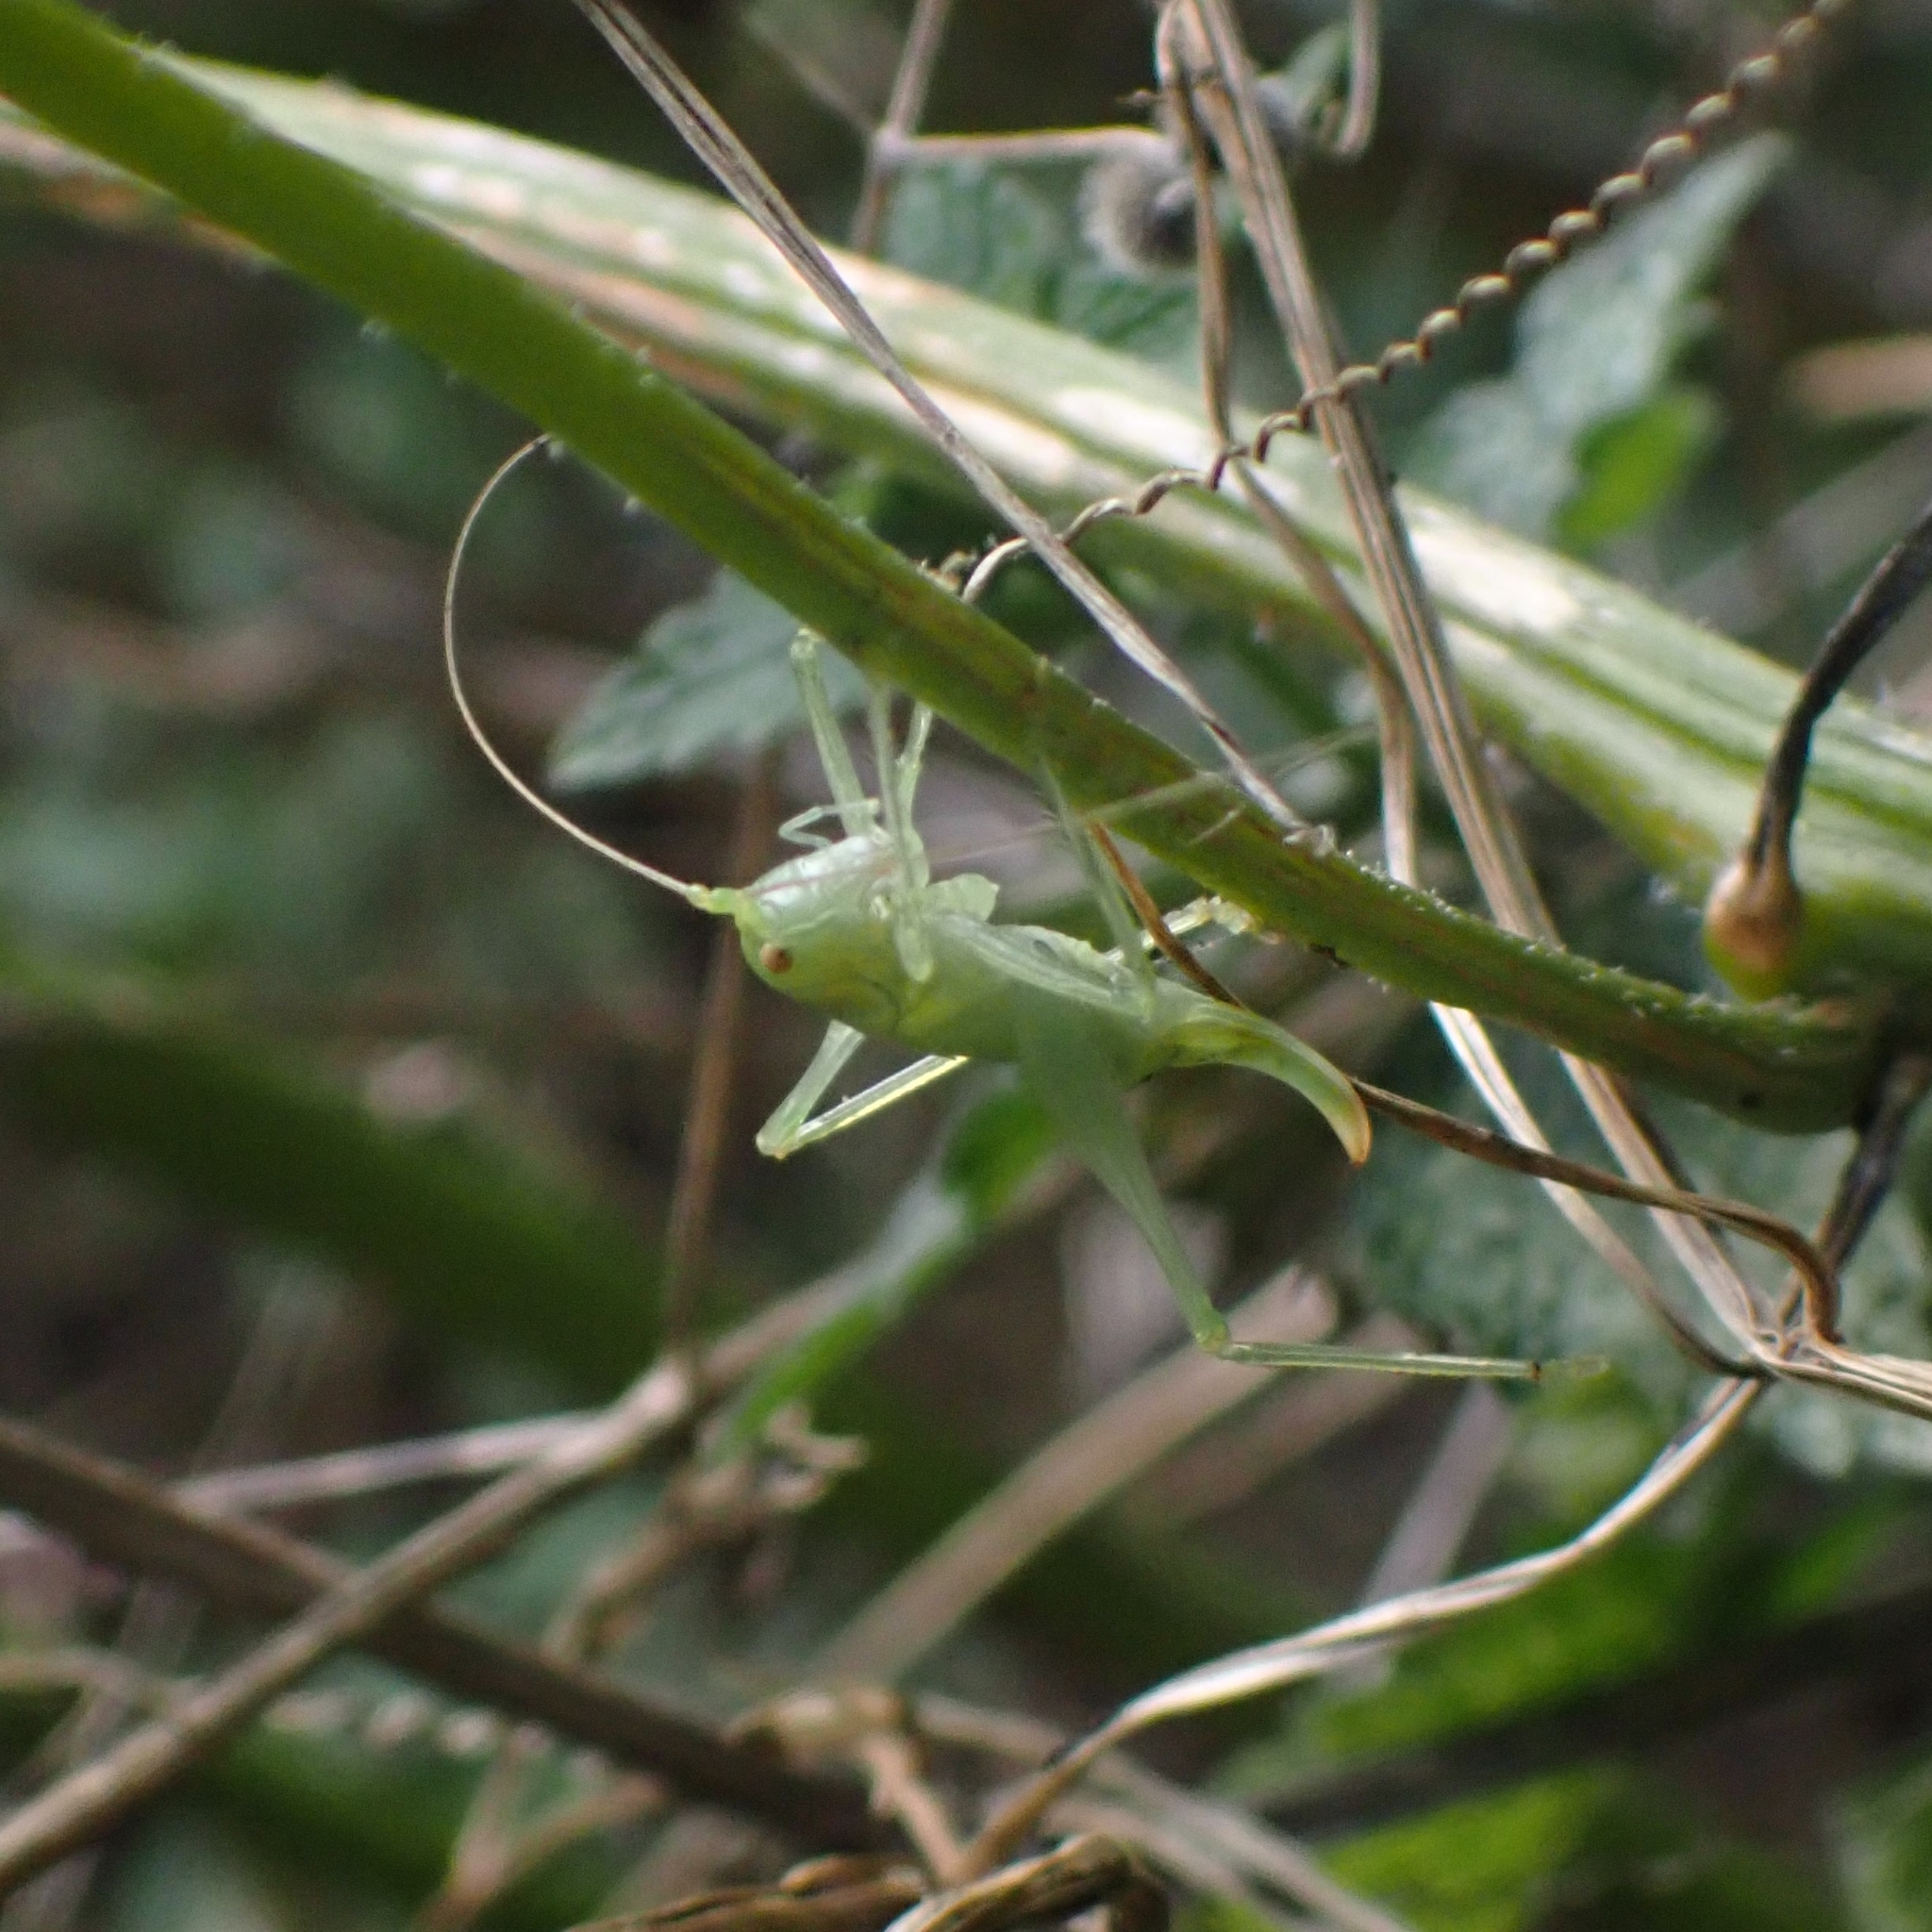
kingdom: Animalia
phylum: Arthropoda
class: Insecta
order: Orthoptera
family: Tettigoniidae
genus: Meconema
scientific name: Meconema meridionale
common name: Southern oak bush-cricket
